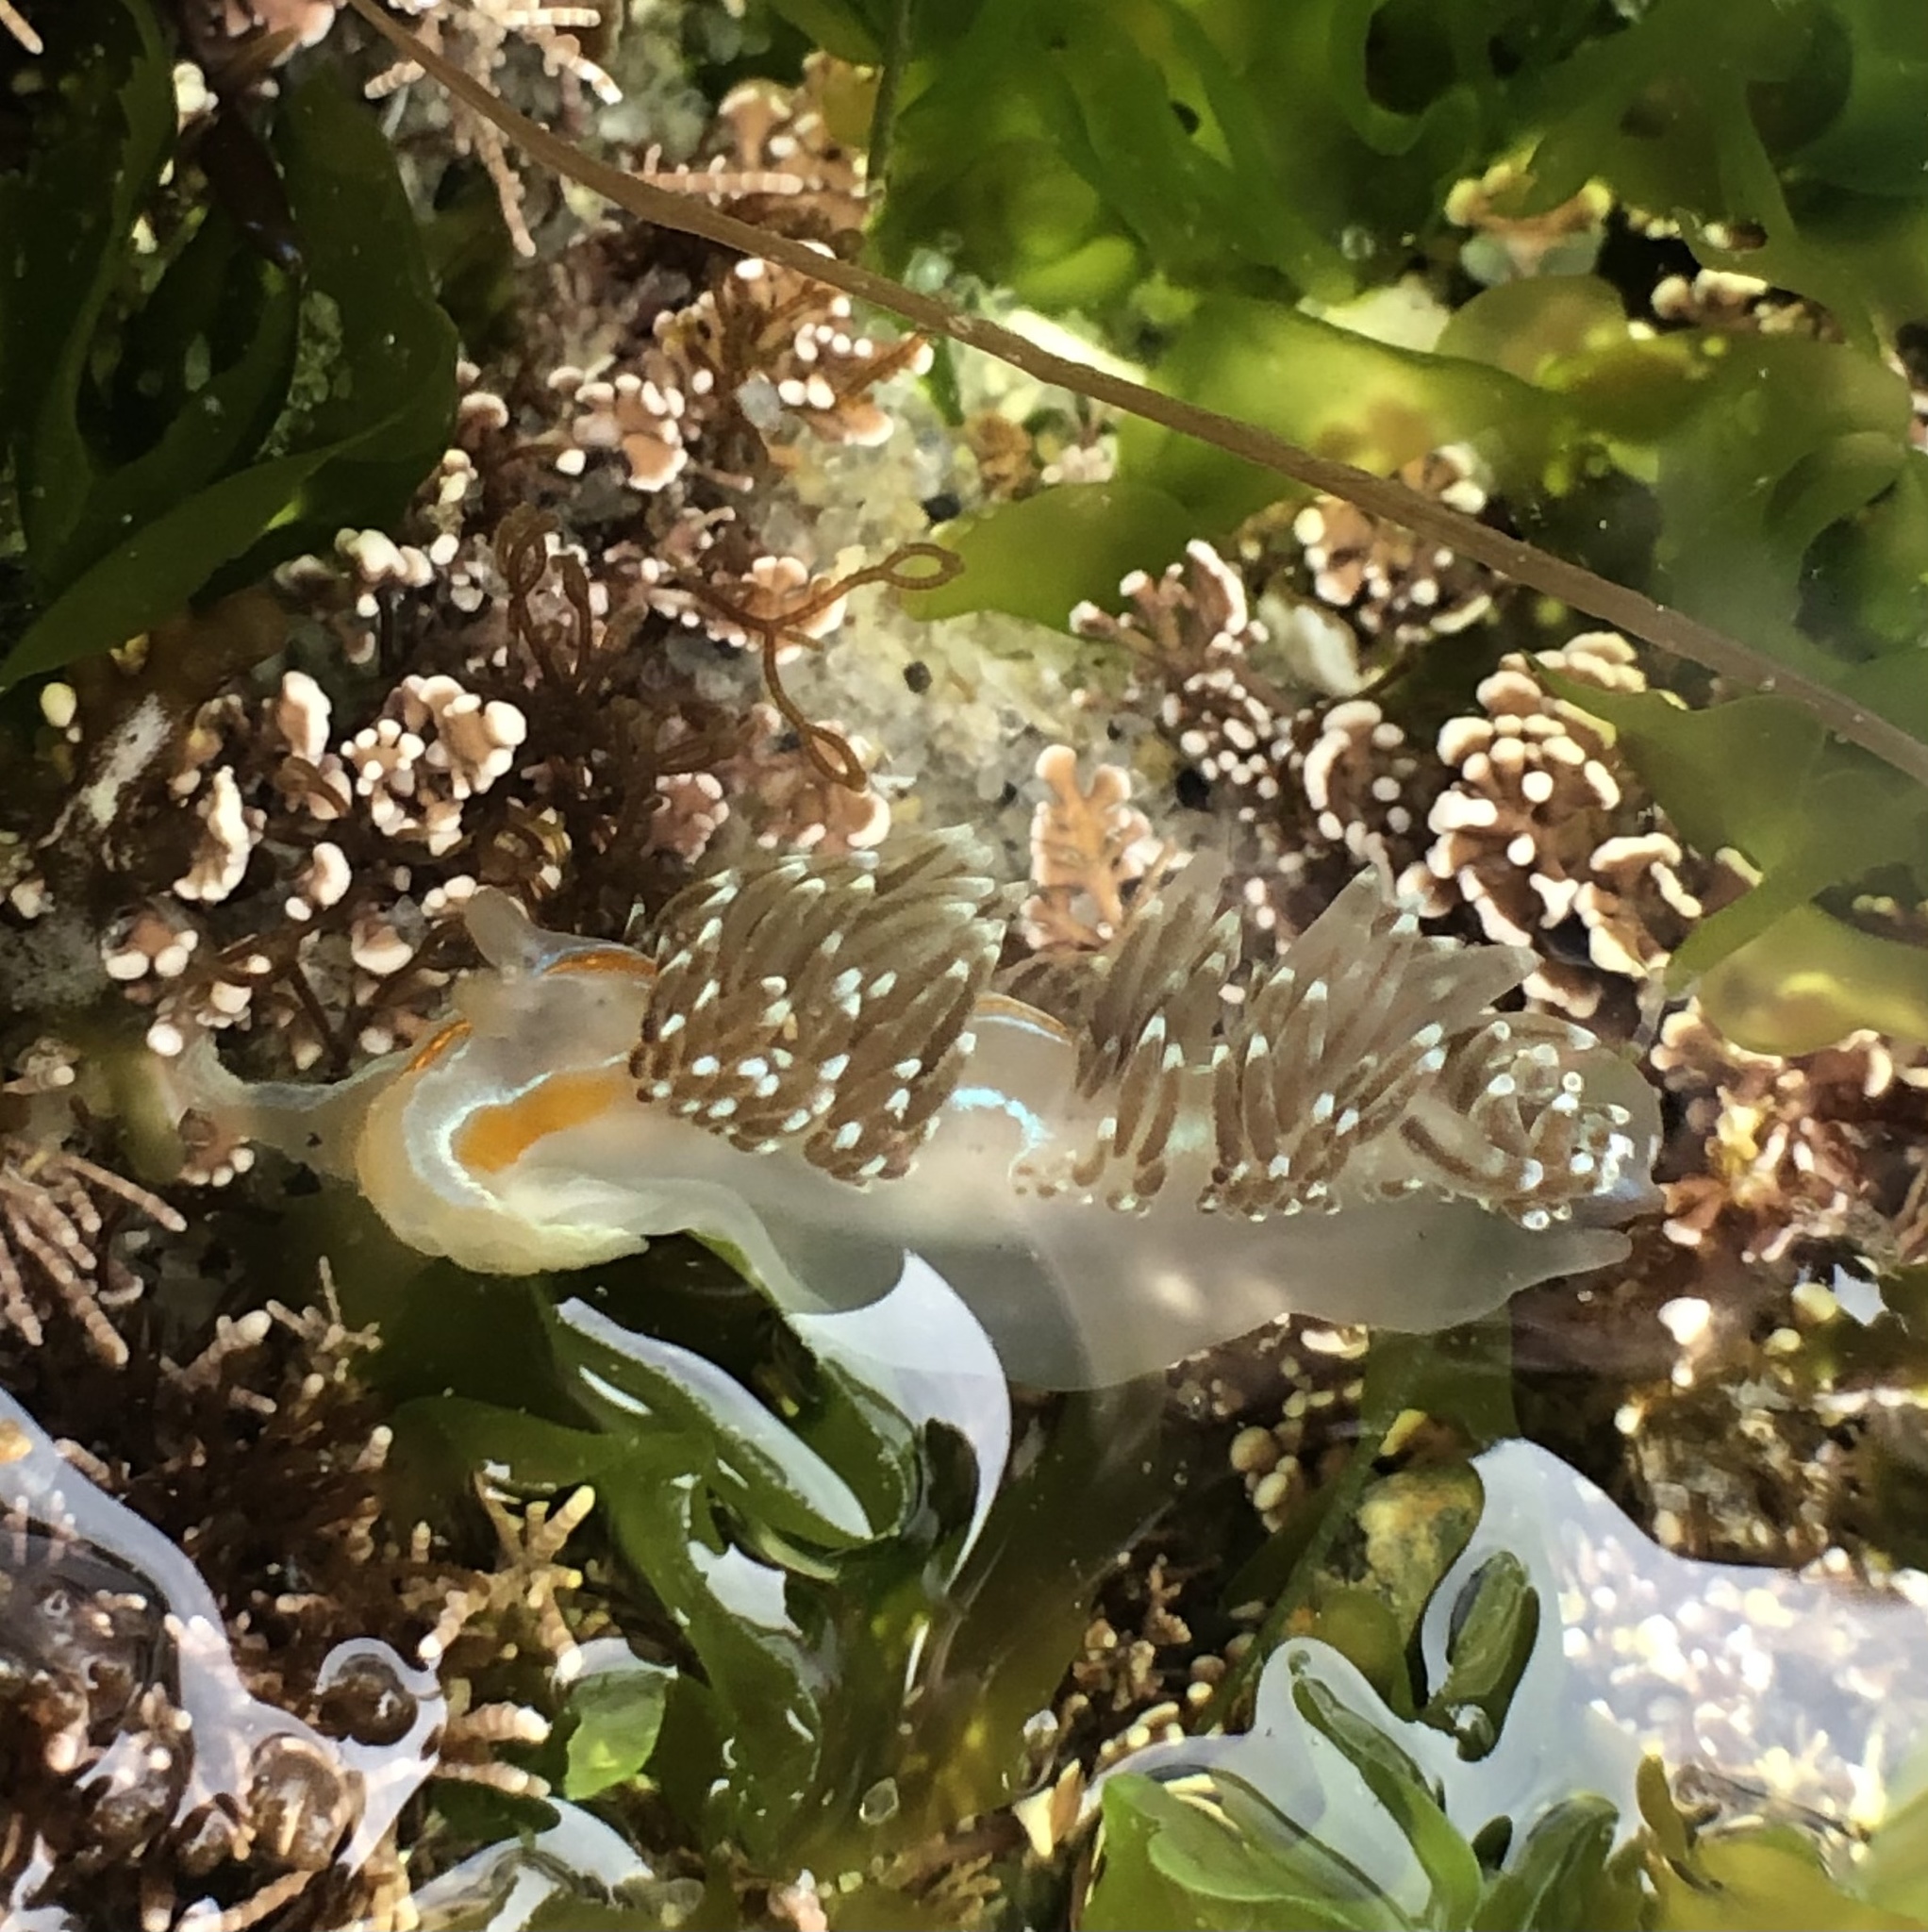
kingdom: Animalia
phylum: Mollusca
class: Gastropoda
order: Nudibranchia
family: Myrrhinidae
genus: Hermissenda
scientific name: Hermissenda opalescens
